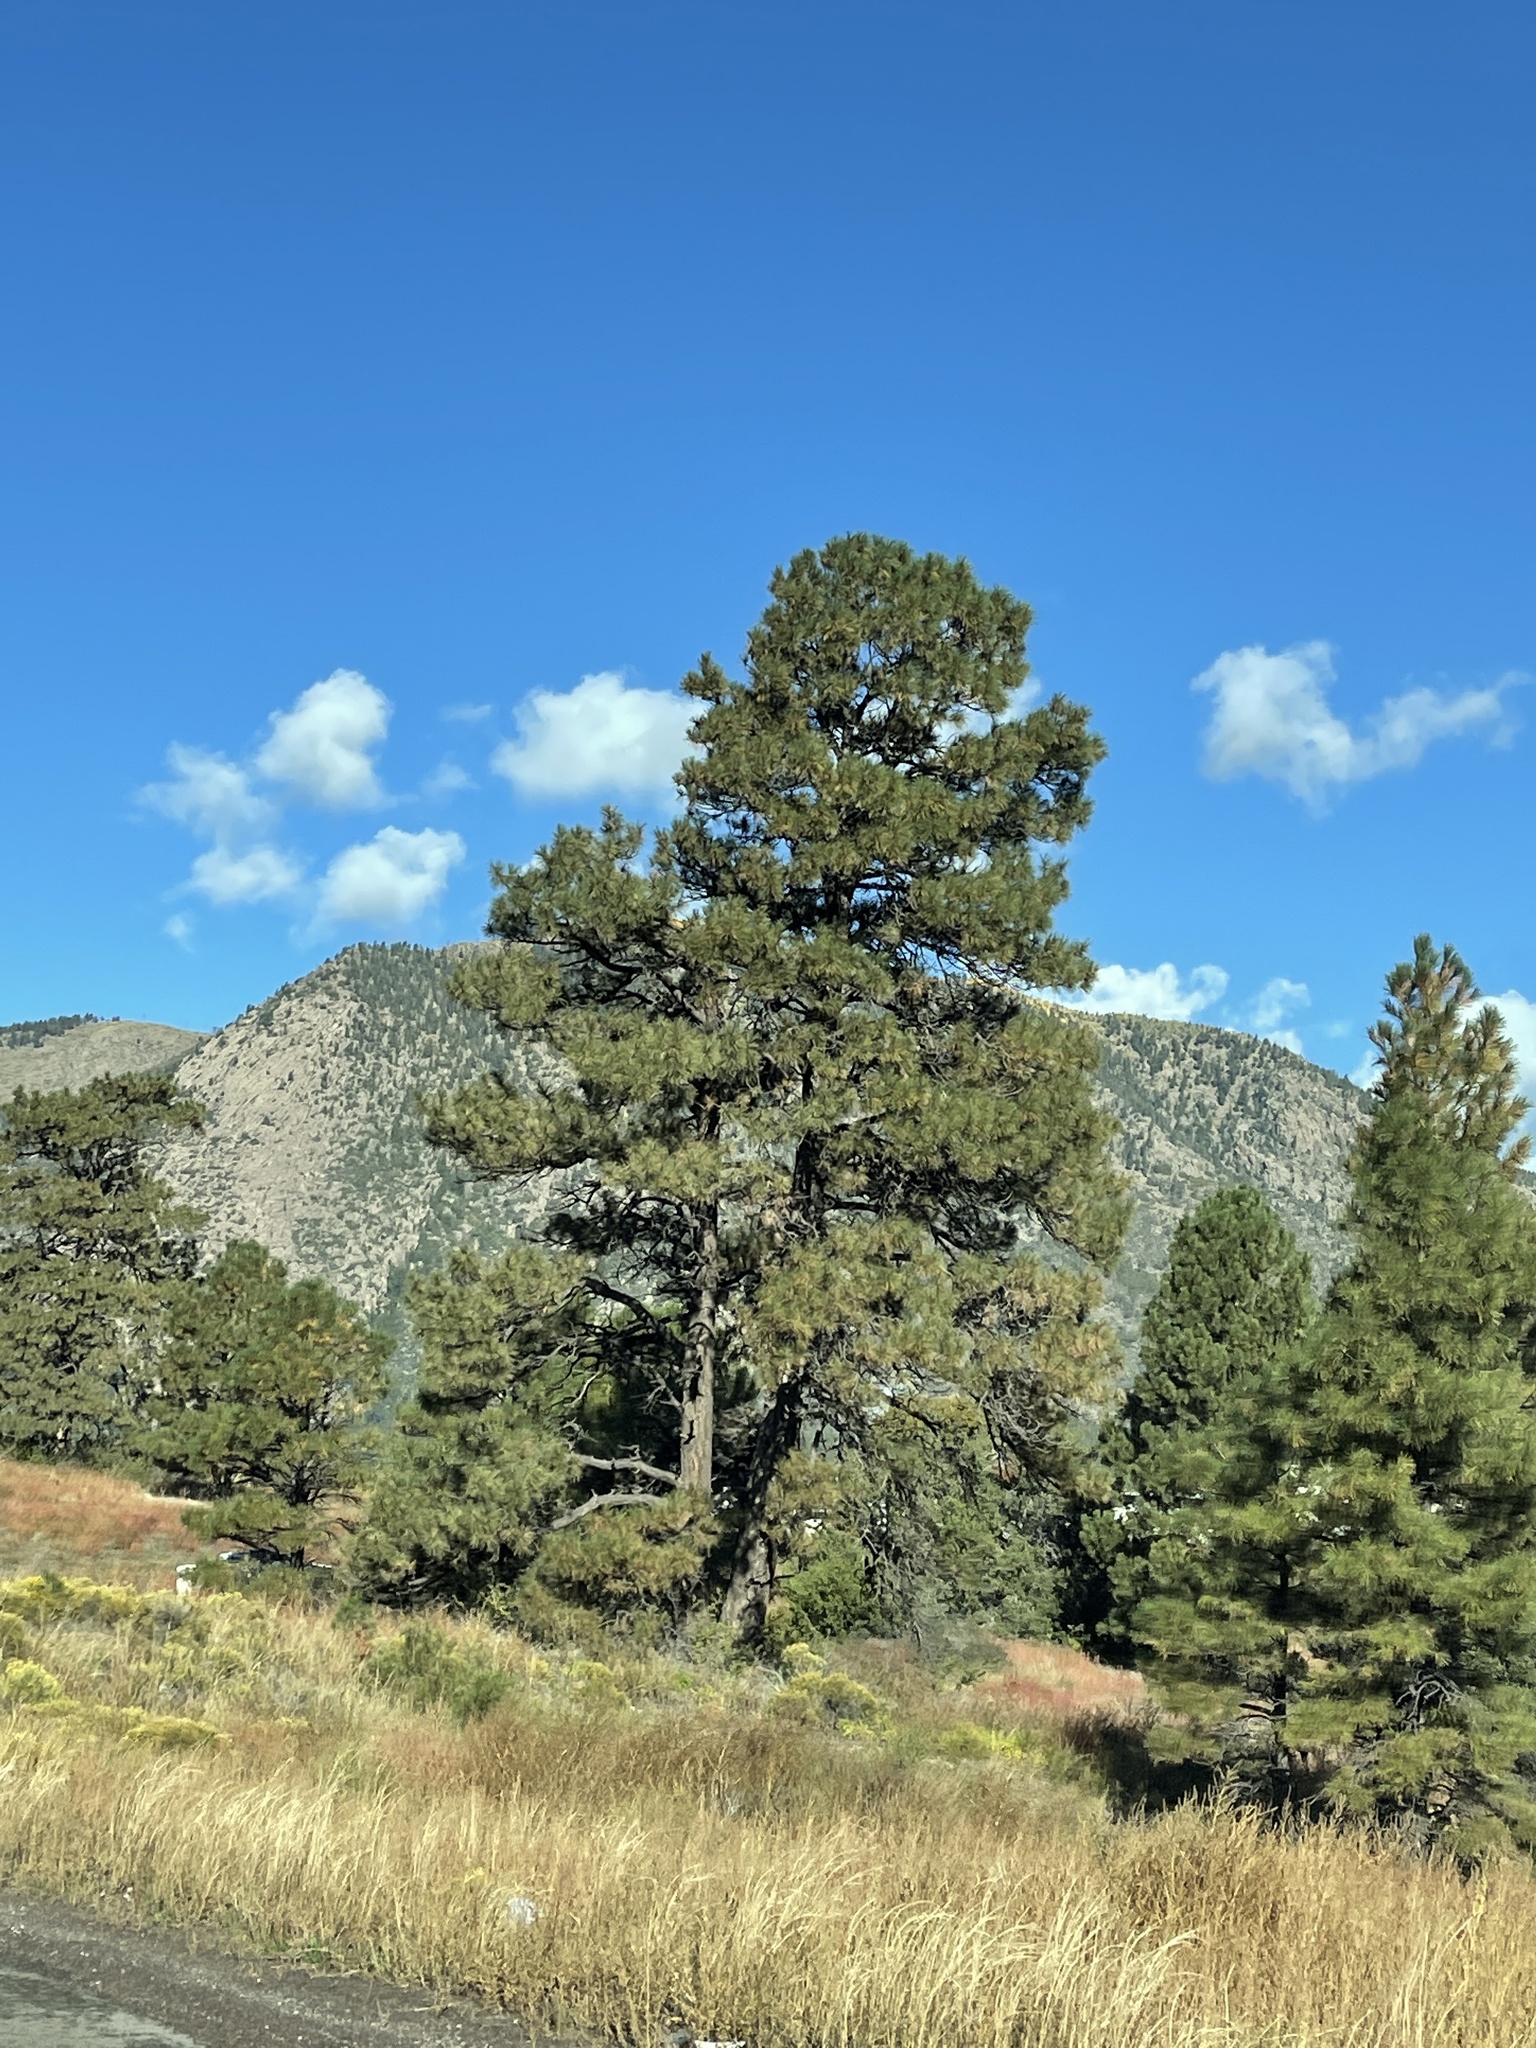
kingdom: Plantae
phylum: Tracheophyta
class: Pinopsida
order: Pinales
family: Pinaceae
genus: Pinus
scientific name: Pinus ponderosa
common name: Western yellow-pine
